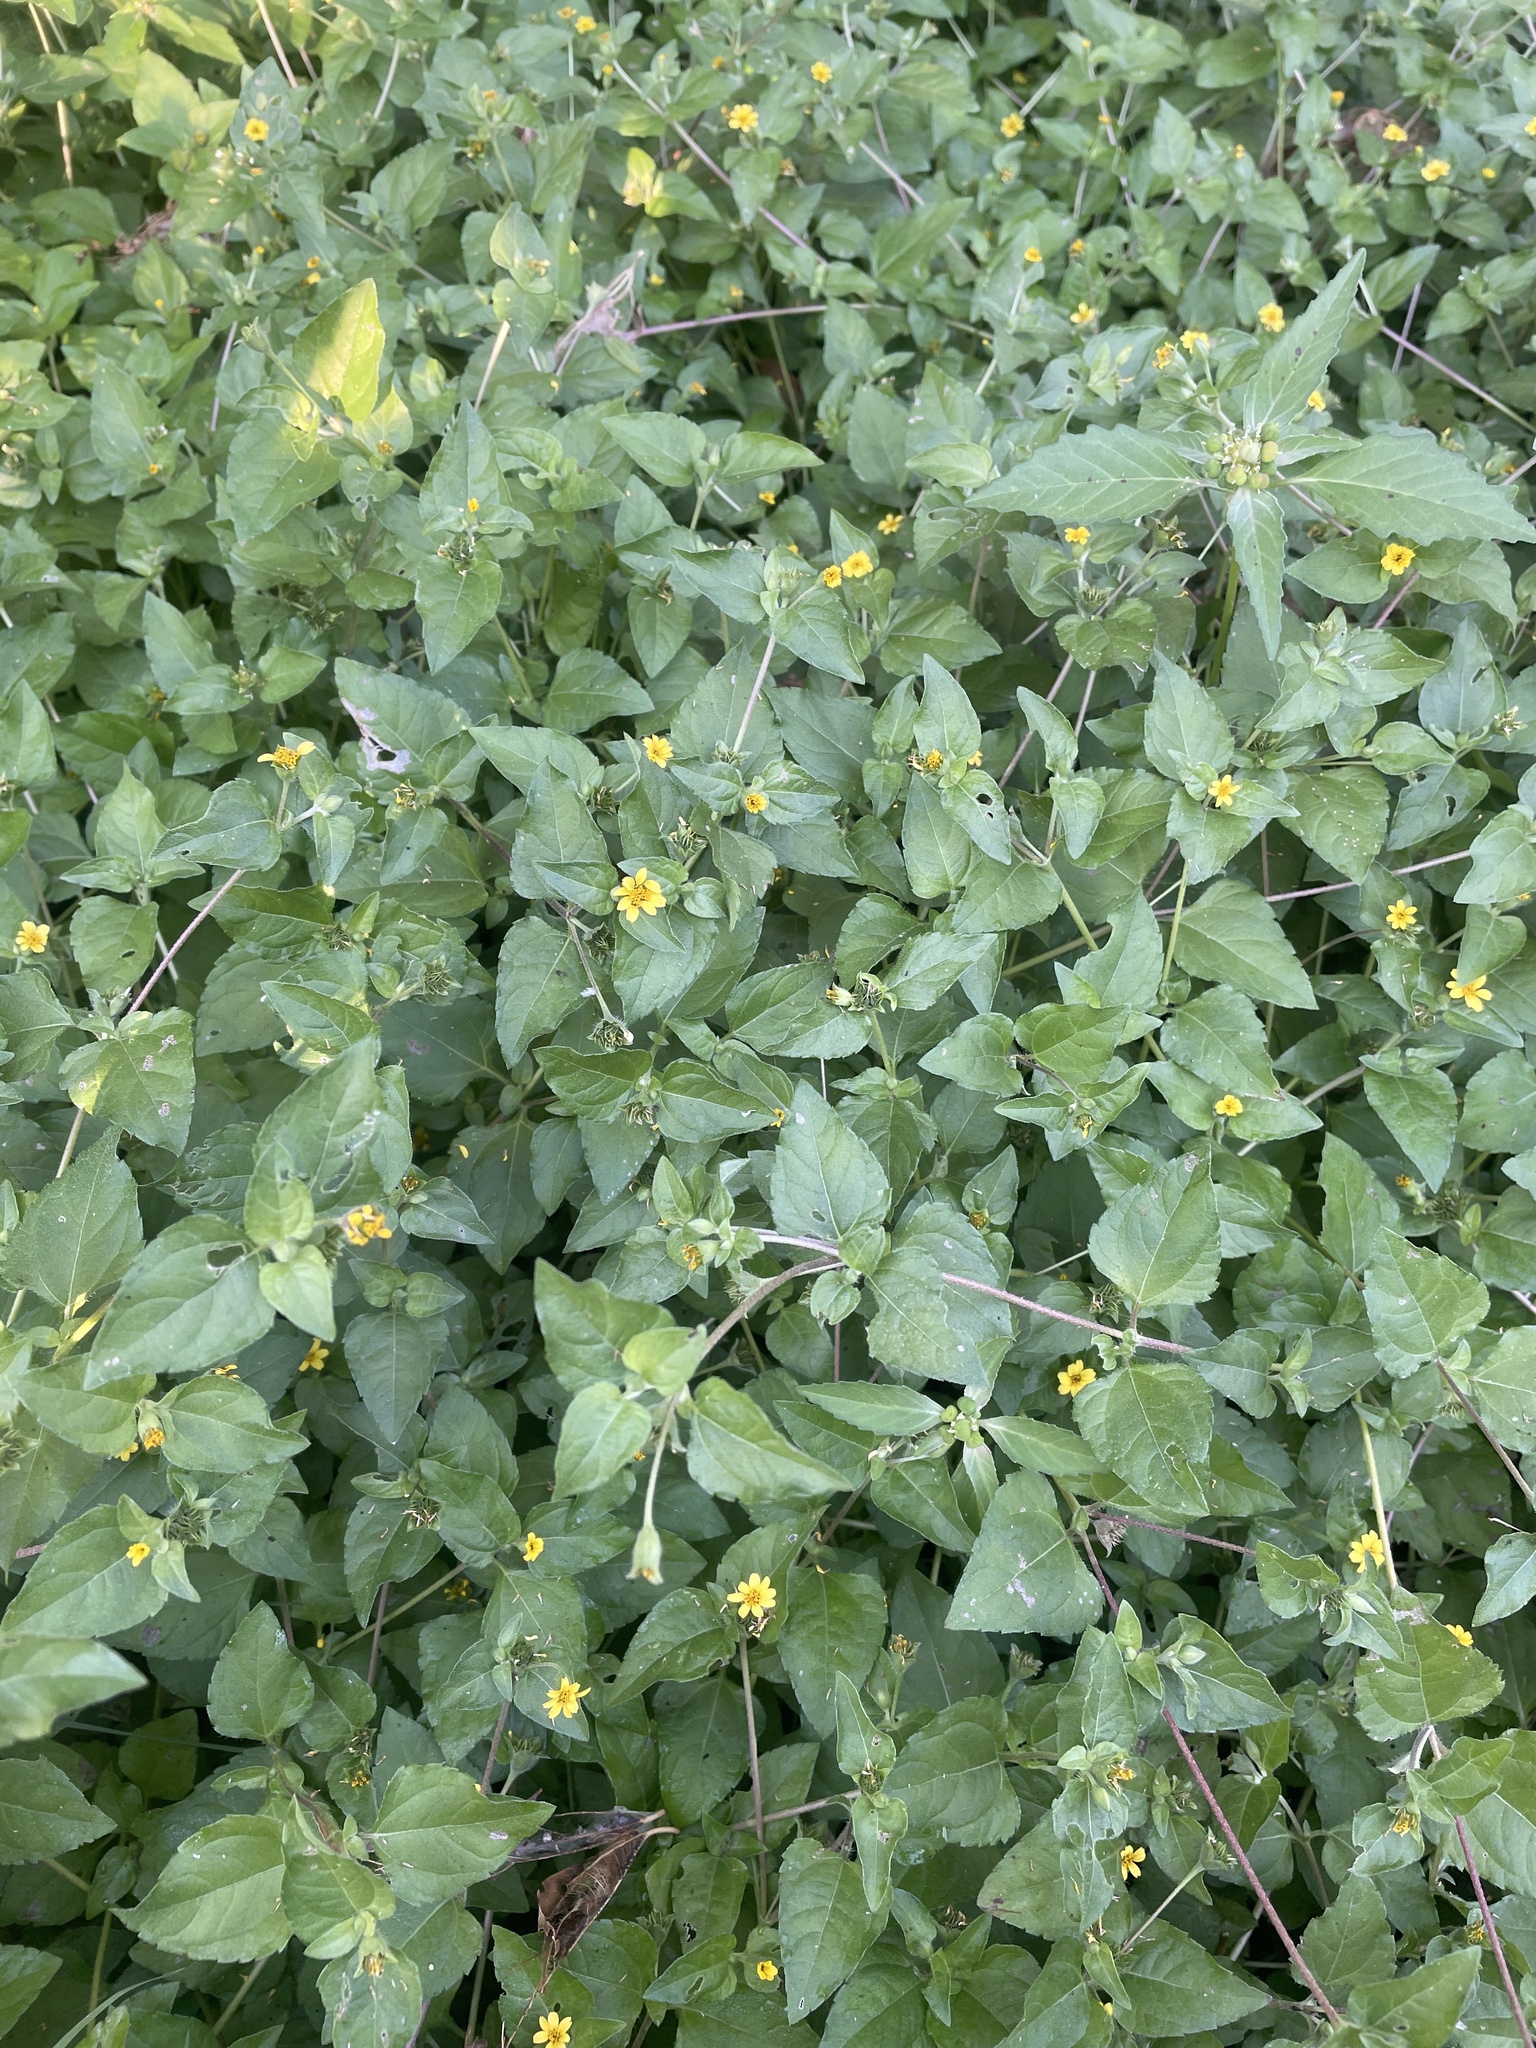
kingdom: Plantae
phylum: Tracheophyta
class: Magnoliopsida
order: Asterales
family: Asteraceae
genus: Calyptocarpus
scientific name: Calyptocarpus vialis
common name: Straggler daisy
